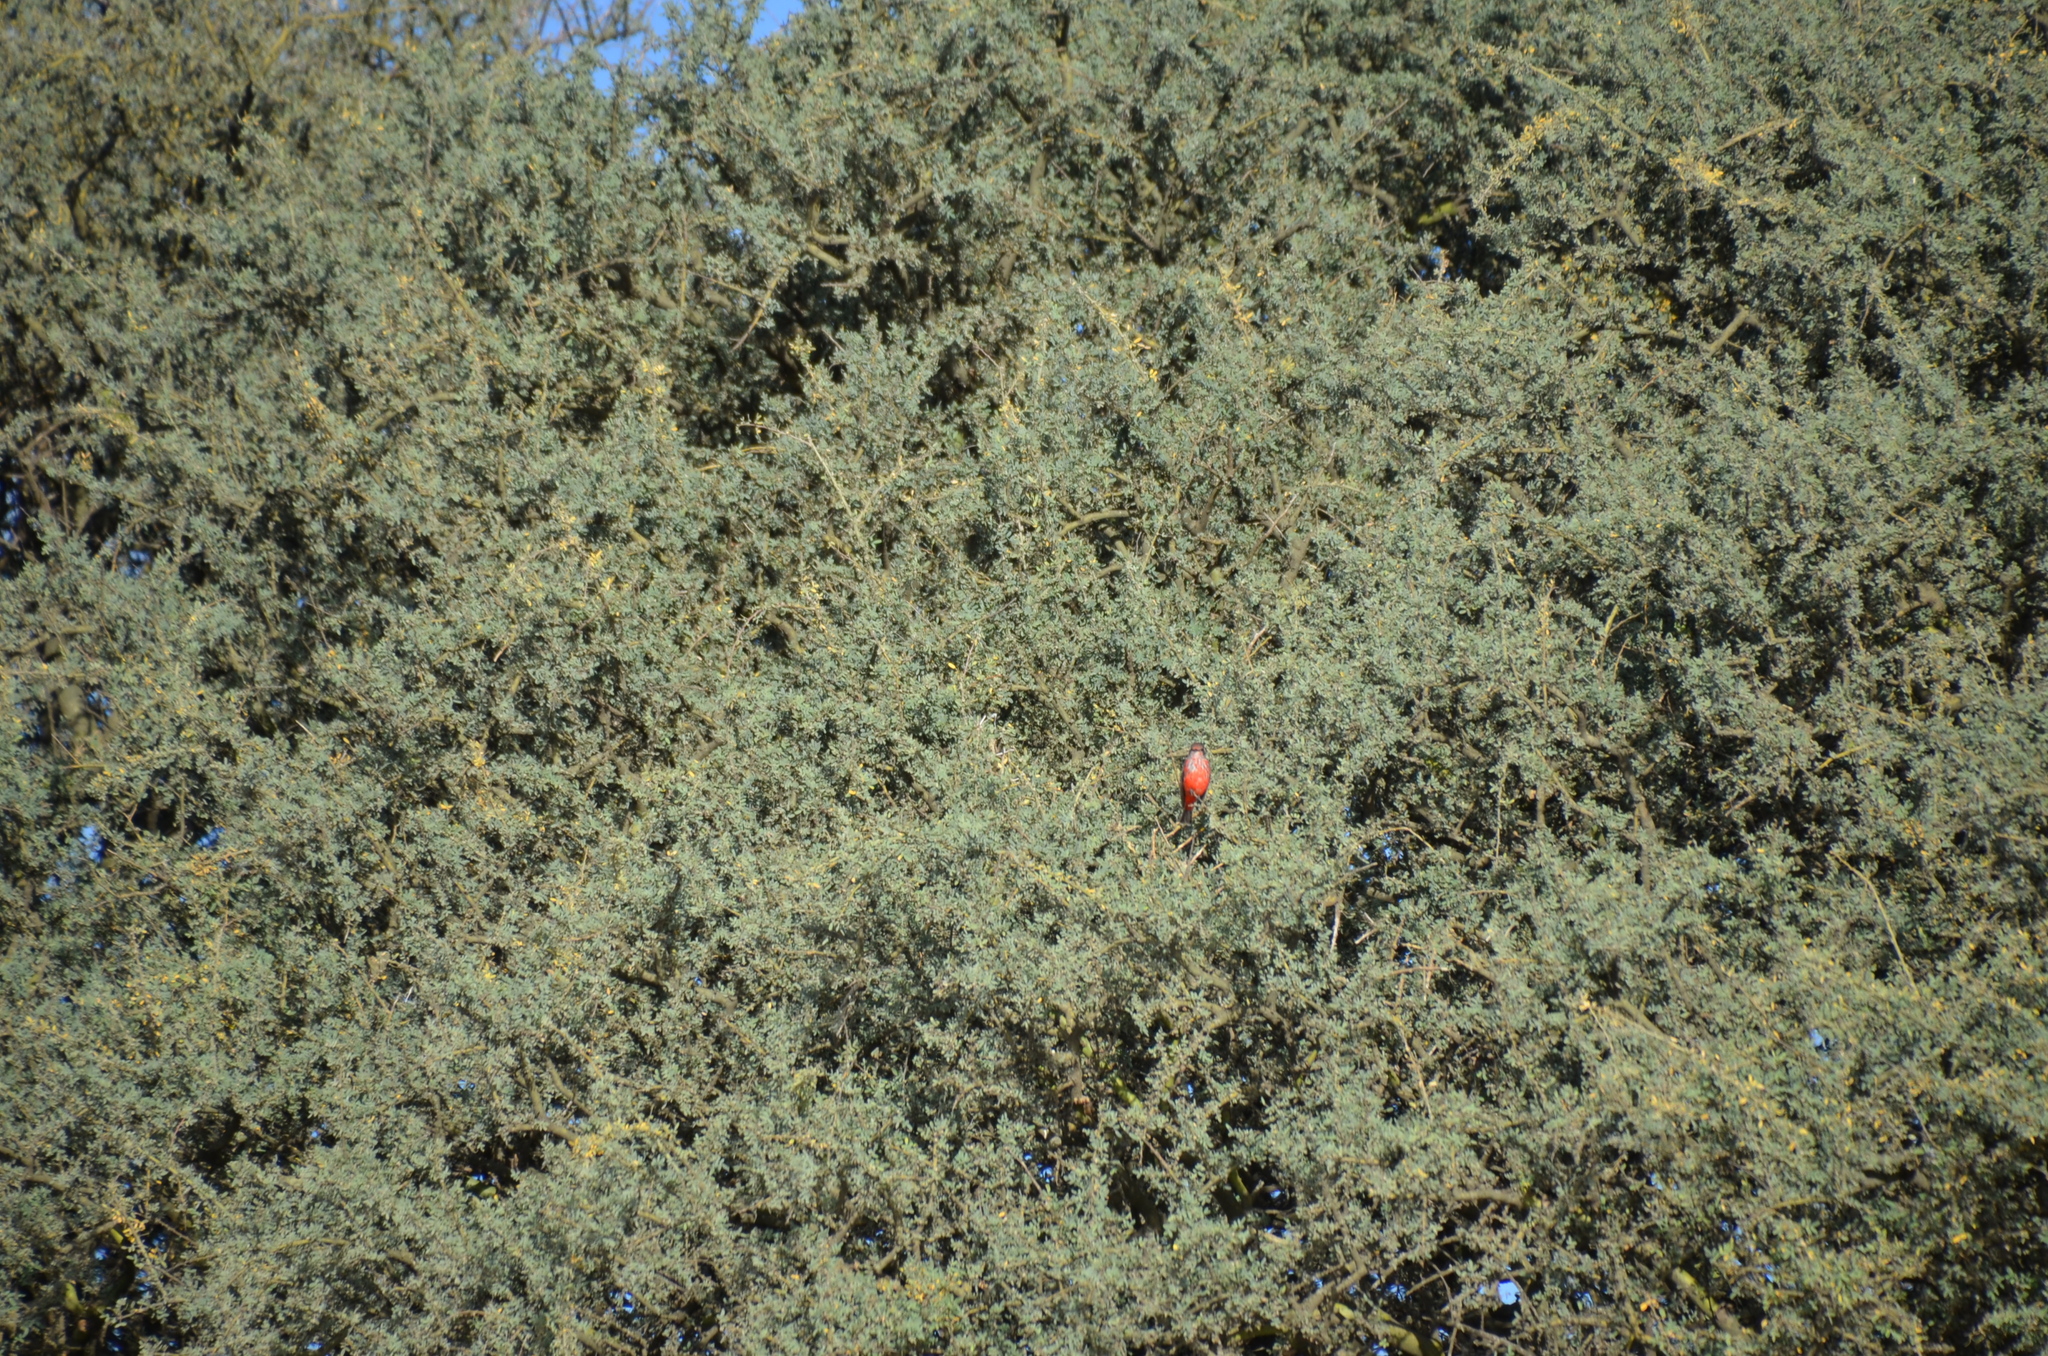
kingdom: Animalia
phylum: Chordata
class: Aves
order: Passeriformes
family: Tyrannidae
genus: Pyrocephalus
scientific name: Pyrocephalus rubinus
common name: Vermilion flycatcher
